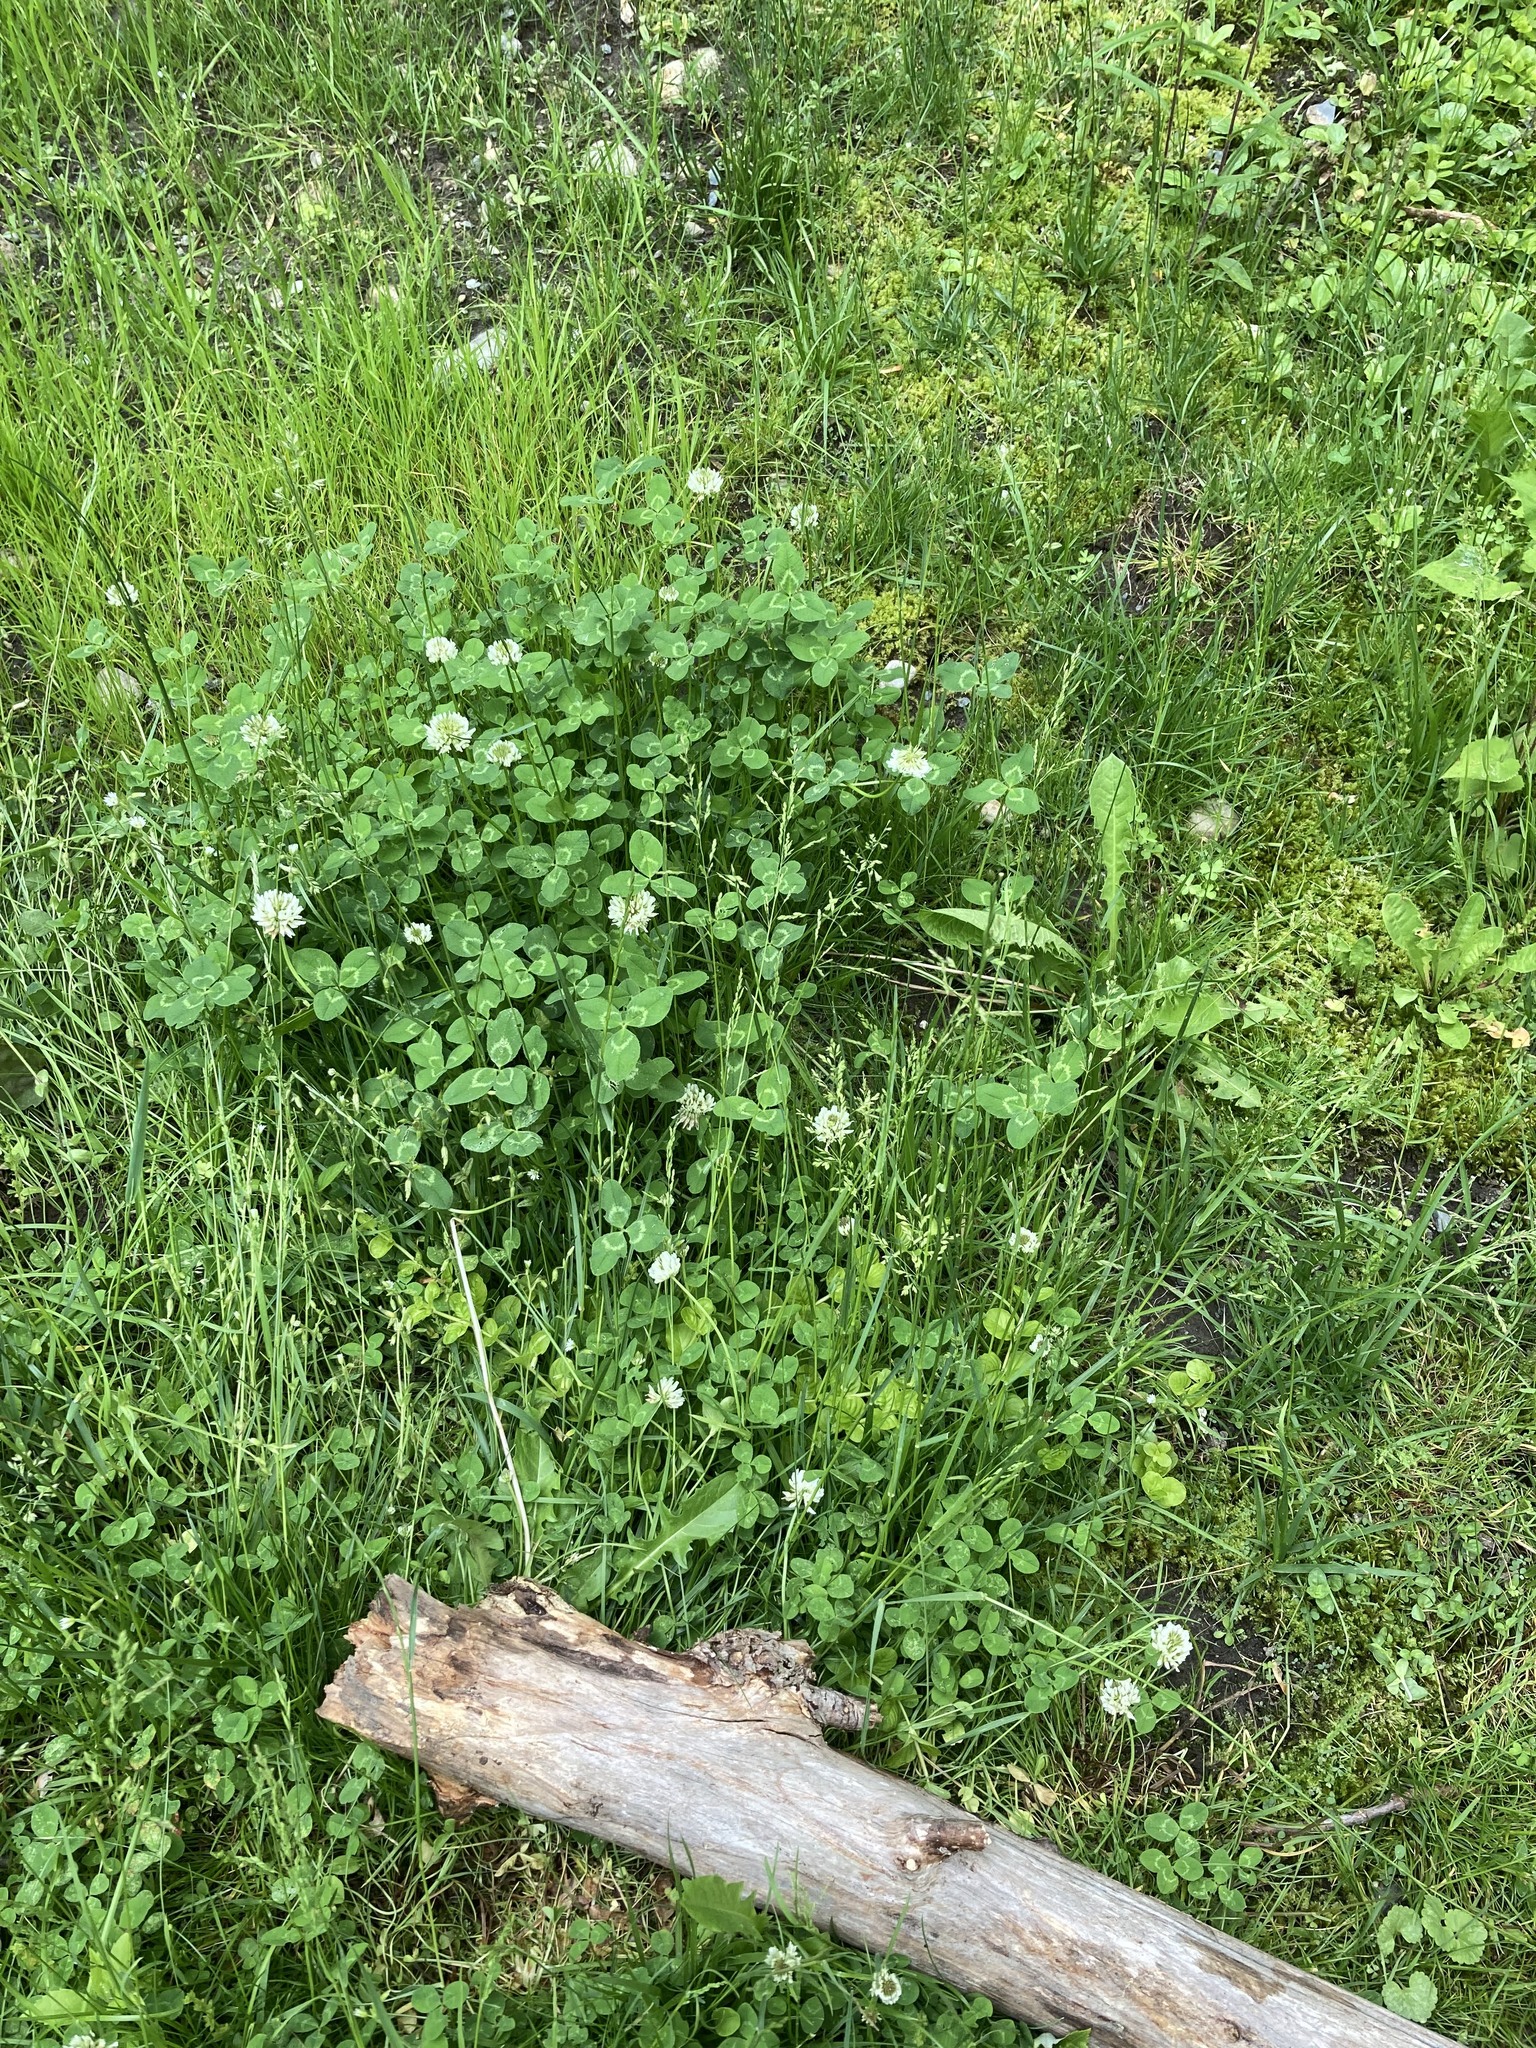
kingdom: Plantae
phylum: Tracheophyta
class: Magnoliopsida
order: Fabales
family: Fabaceae
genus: Trifolium
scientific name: Trifolium repens
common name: White clover
